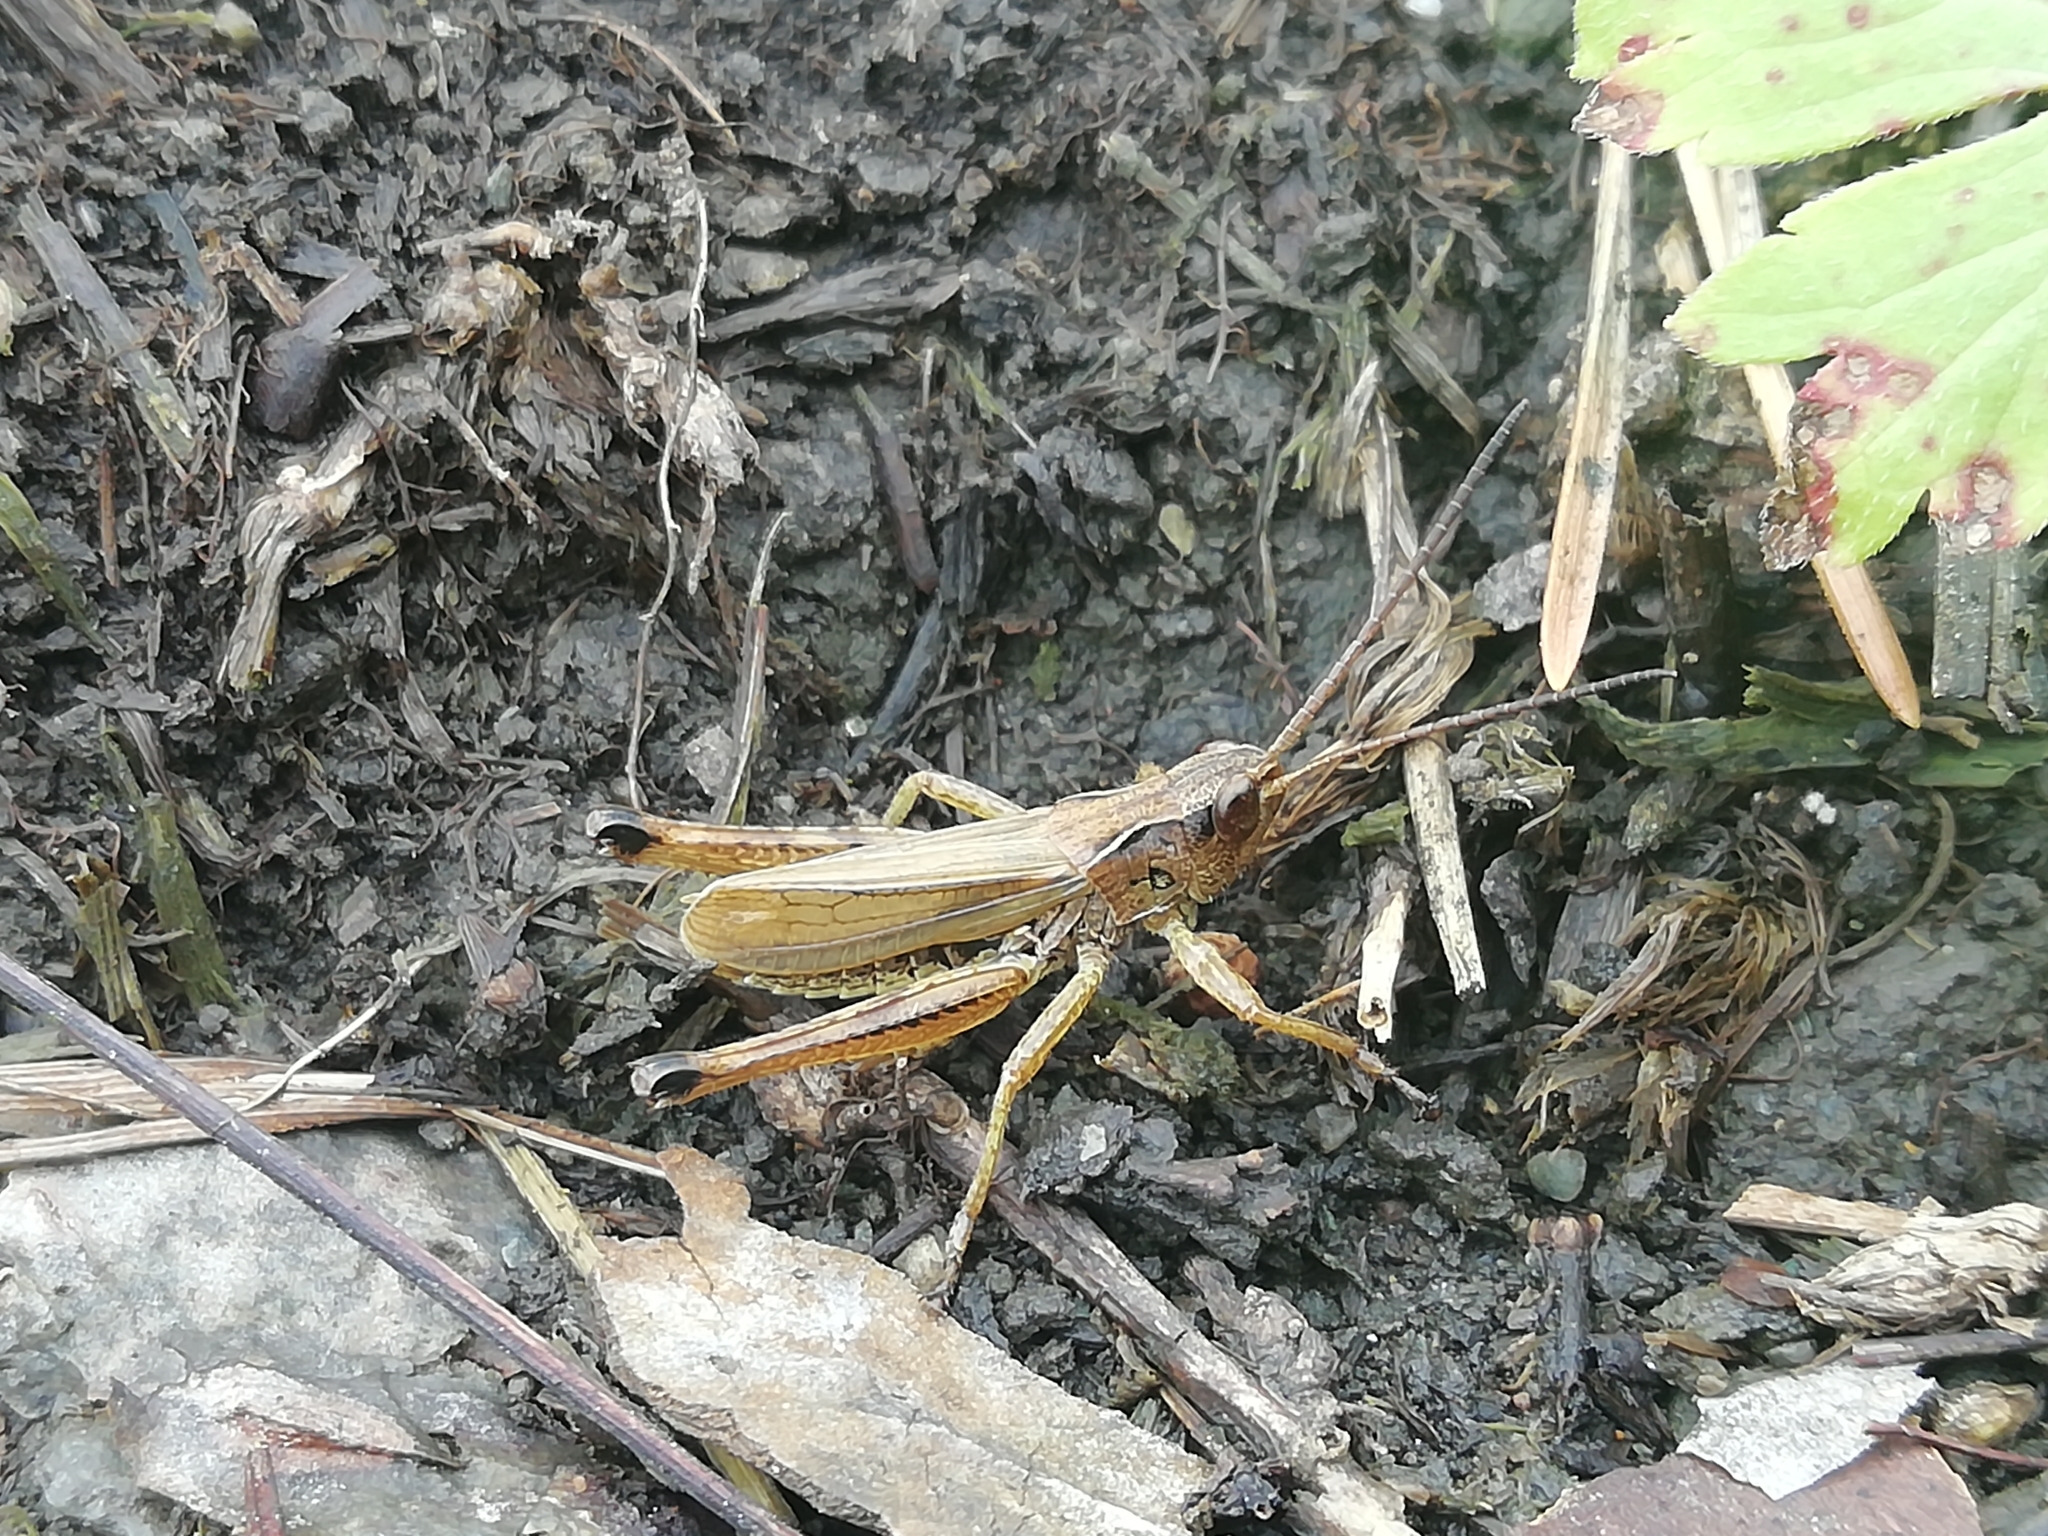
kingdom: Animalia
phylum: Arthropoda
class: Insecta
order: Orthoptera
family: Acrididae
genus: Chorthippus
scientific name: Chorthippus fallax
